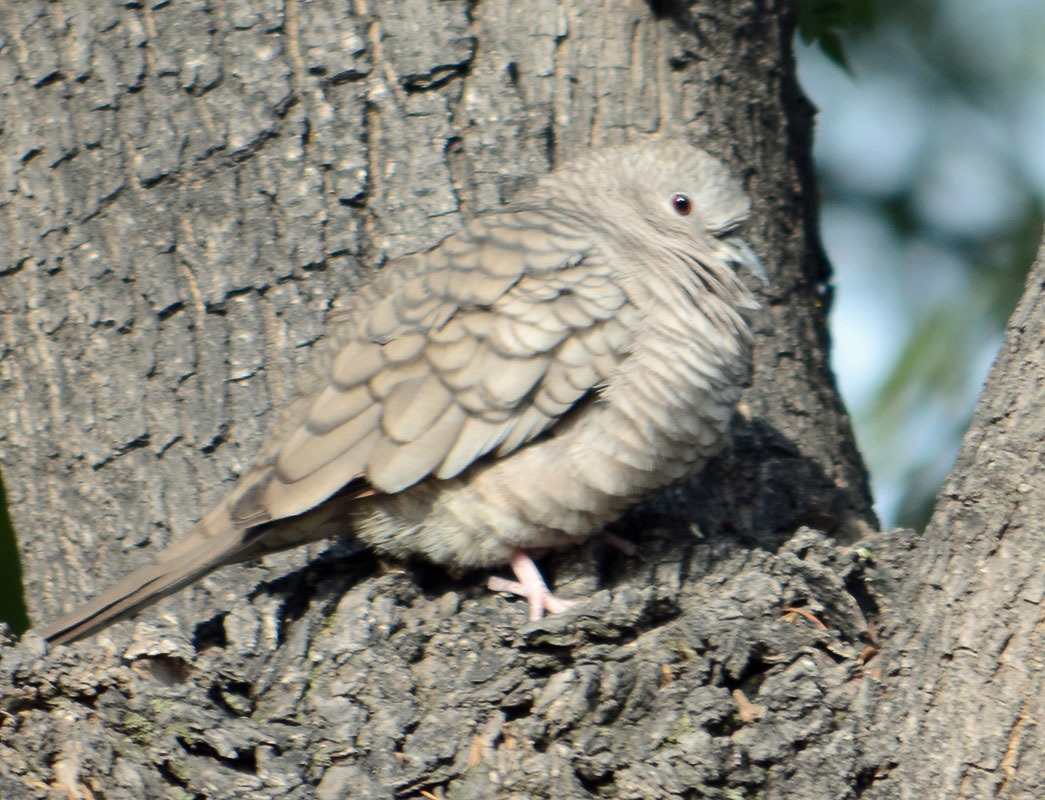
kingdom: Animalia
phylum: Chordata
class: Aves
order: Columbiformes
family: Columbidae
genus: Columbina
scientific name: Columbina inca
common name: Inca dove
